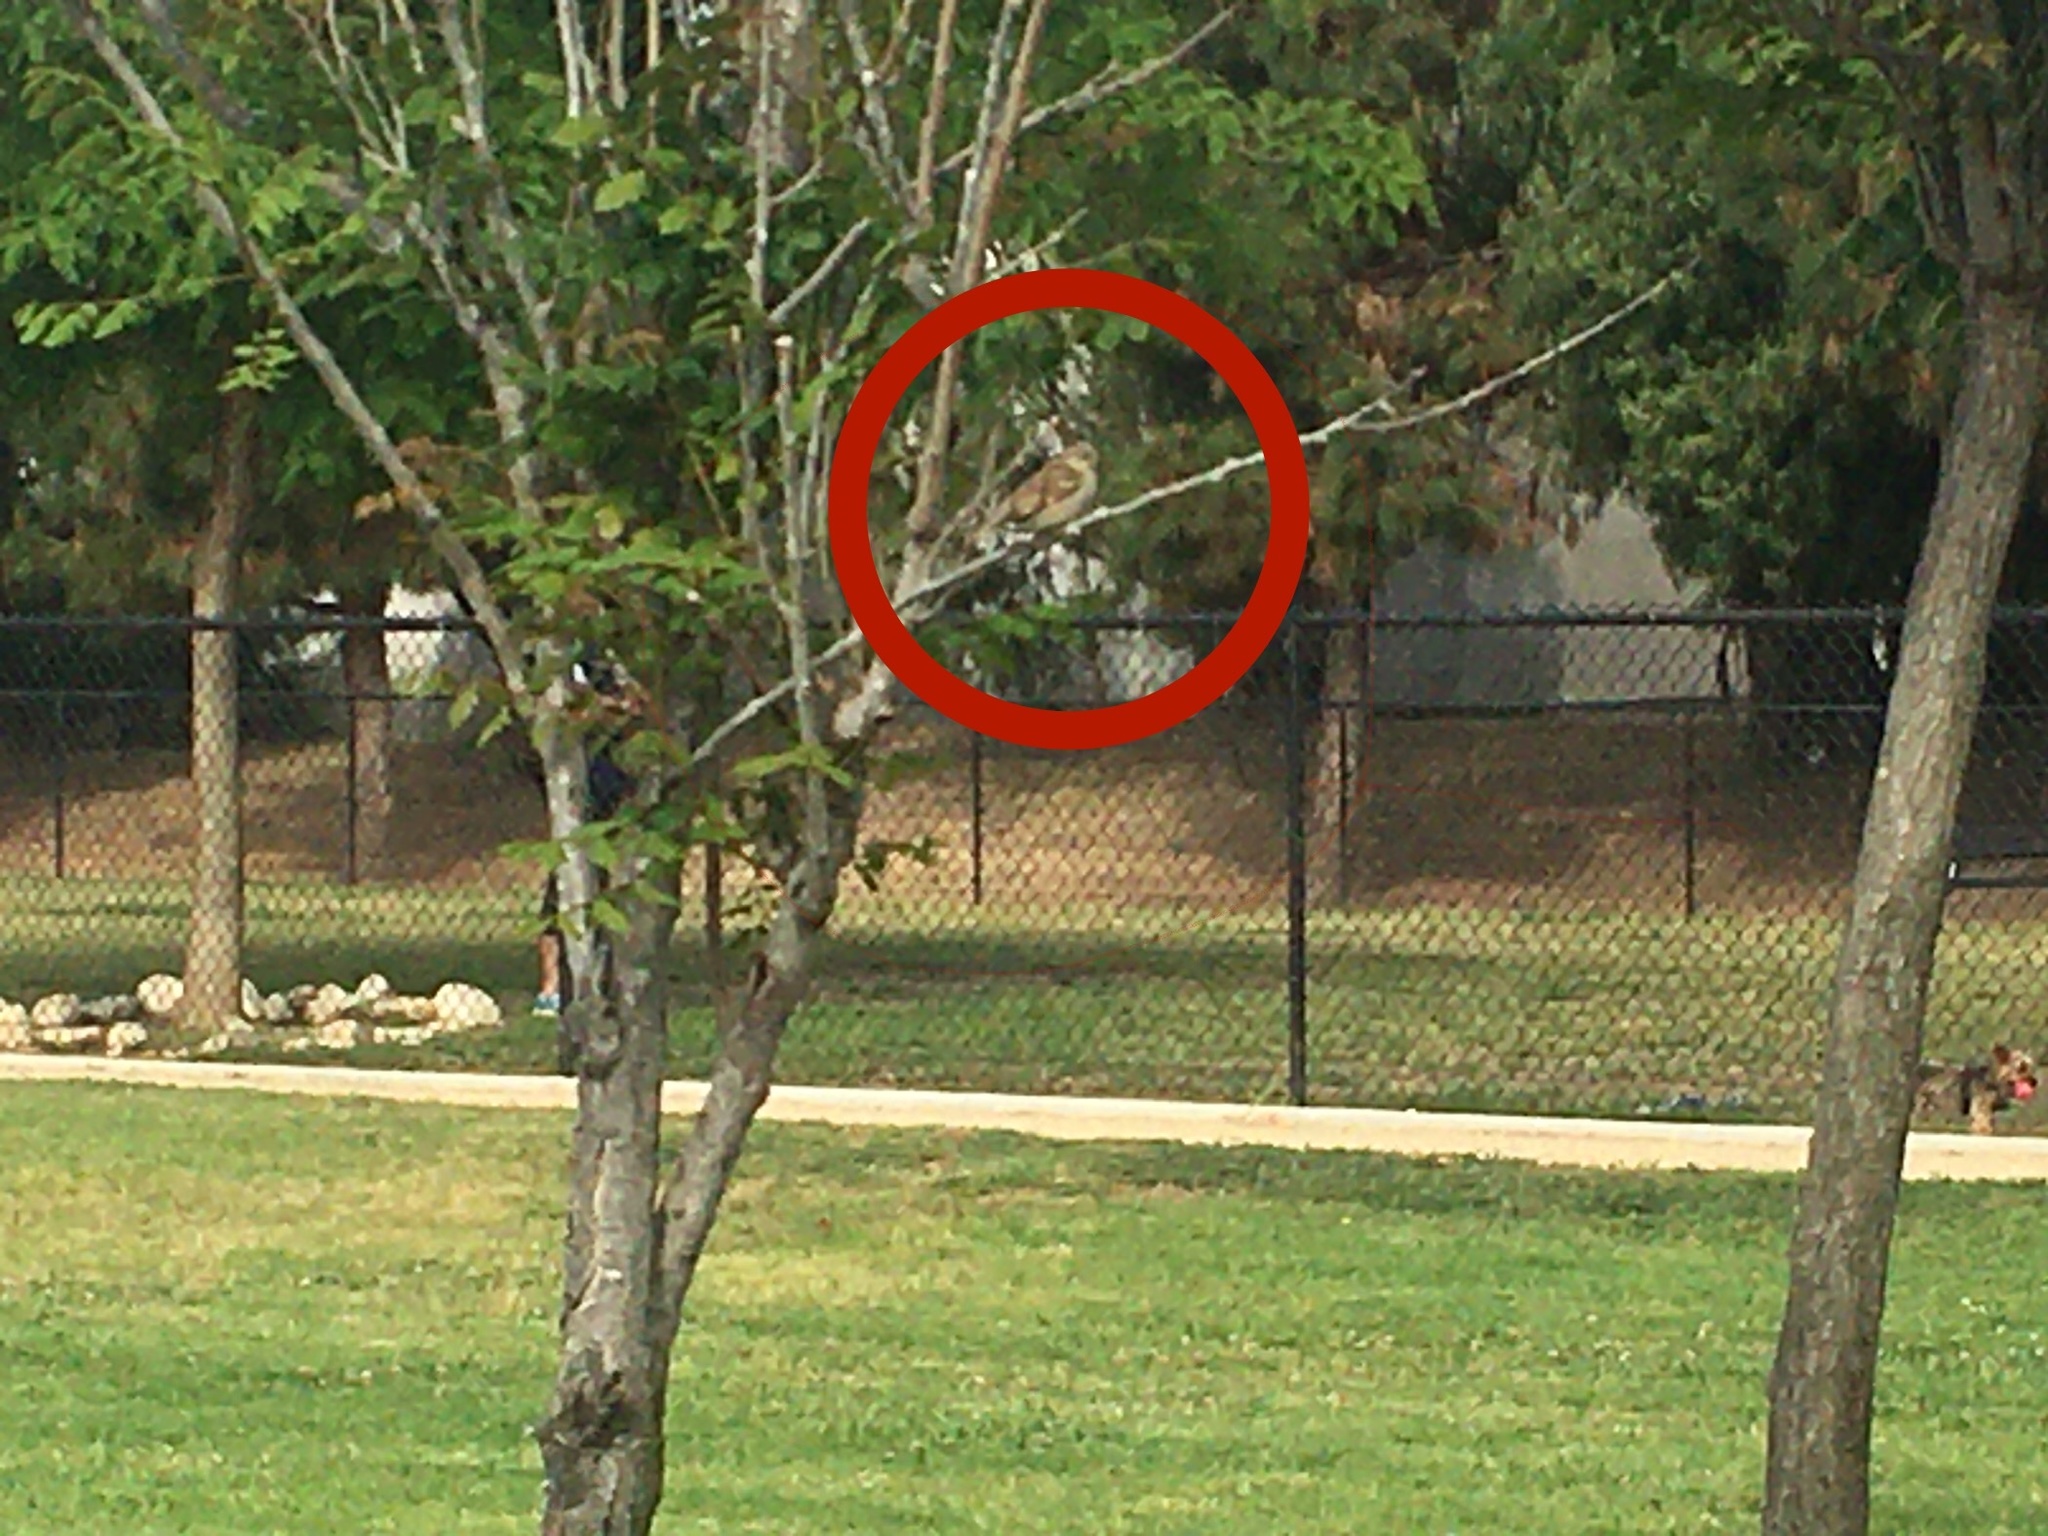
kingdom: Animalia
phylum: Chordata
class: Aves
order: Passeriformes
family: Passeridae
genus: Passer
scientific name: Passer domesticus
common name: House sparrow
